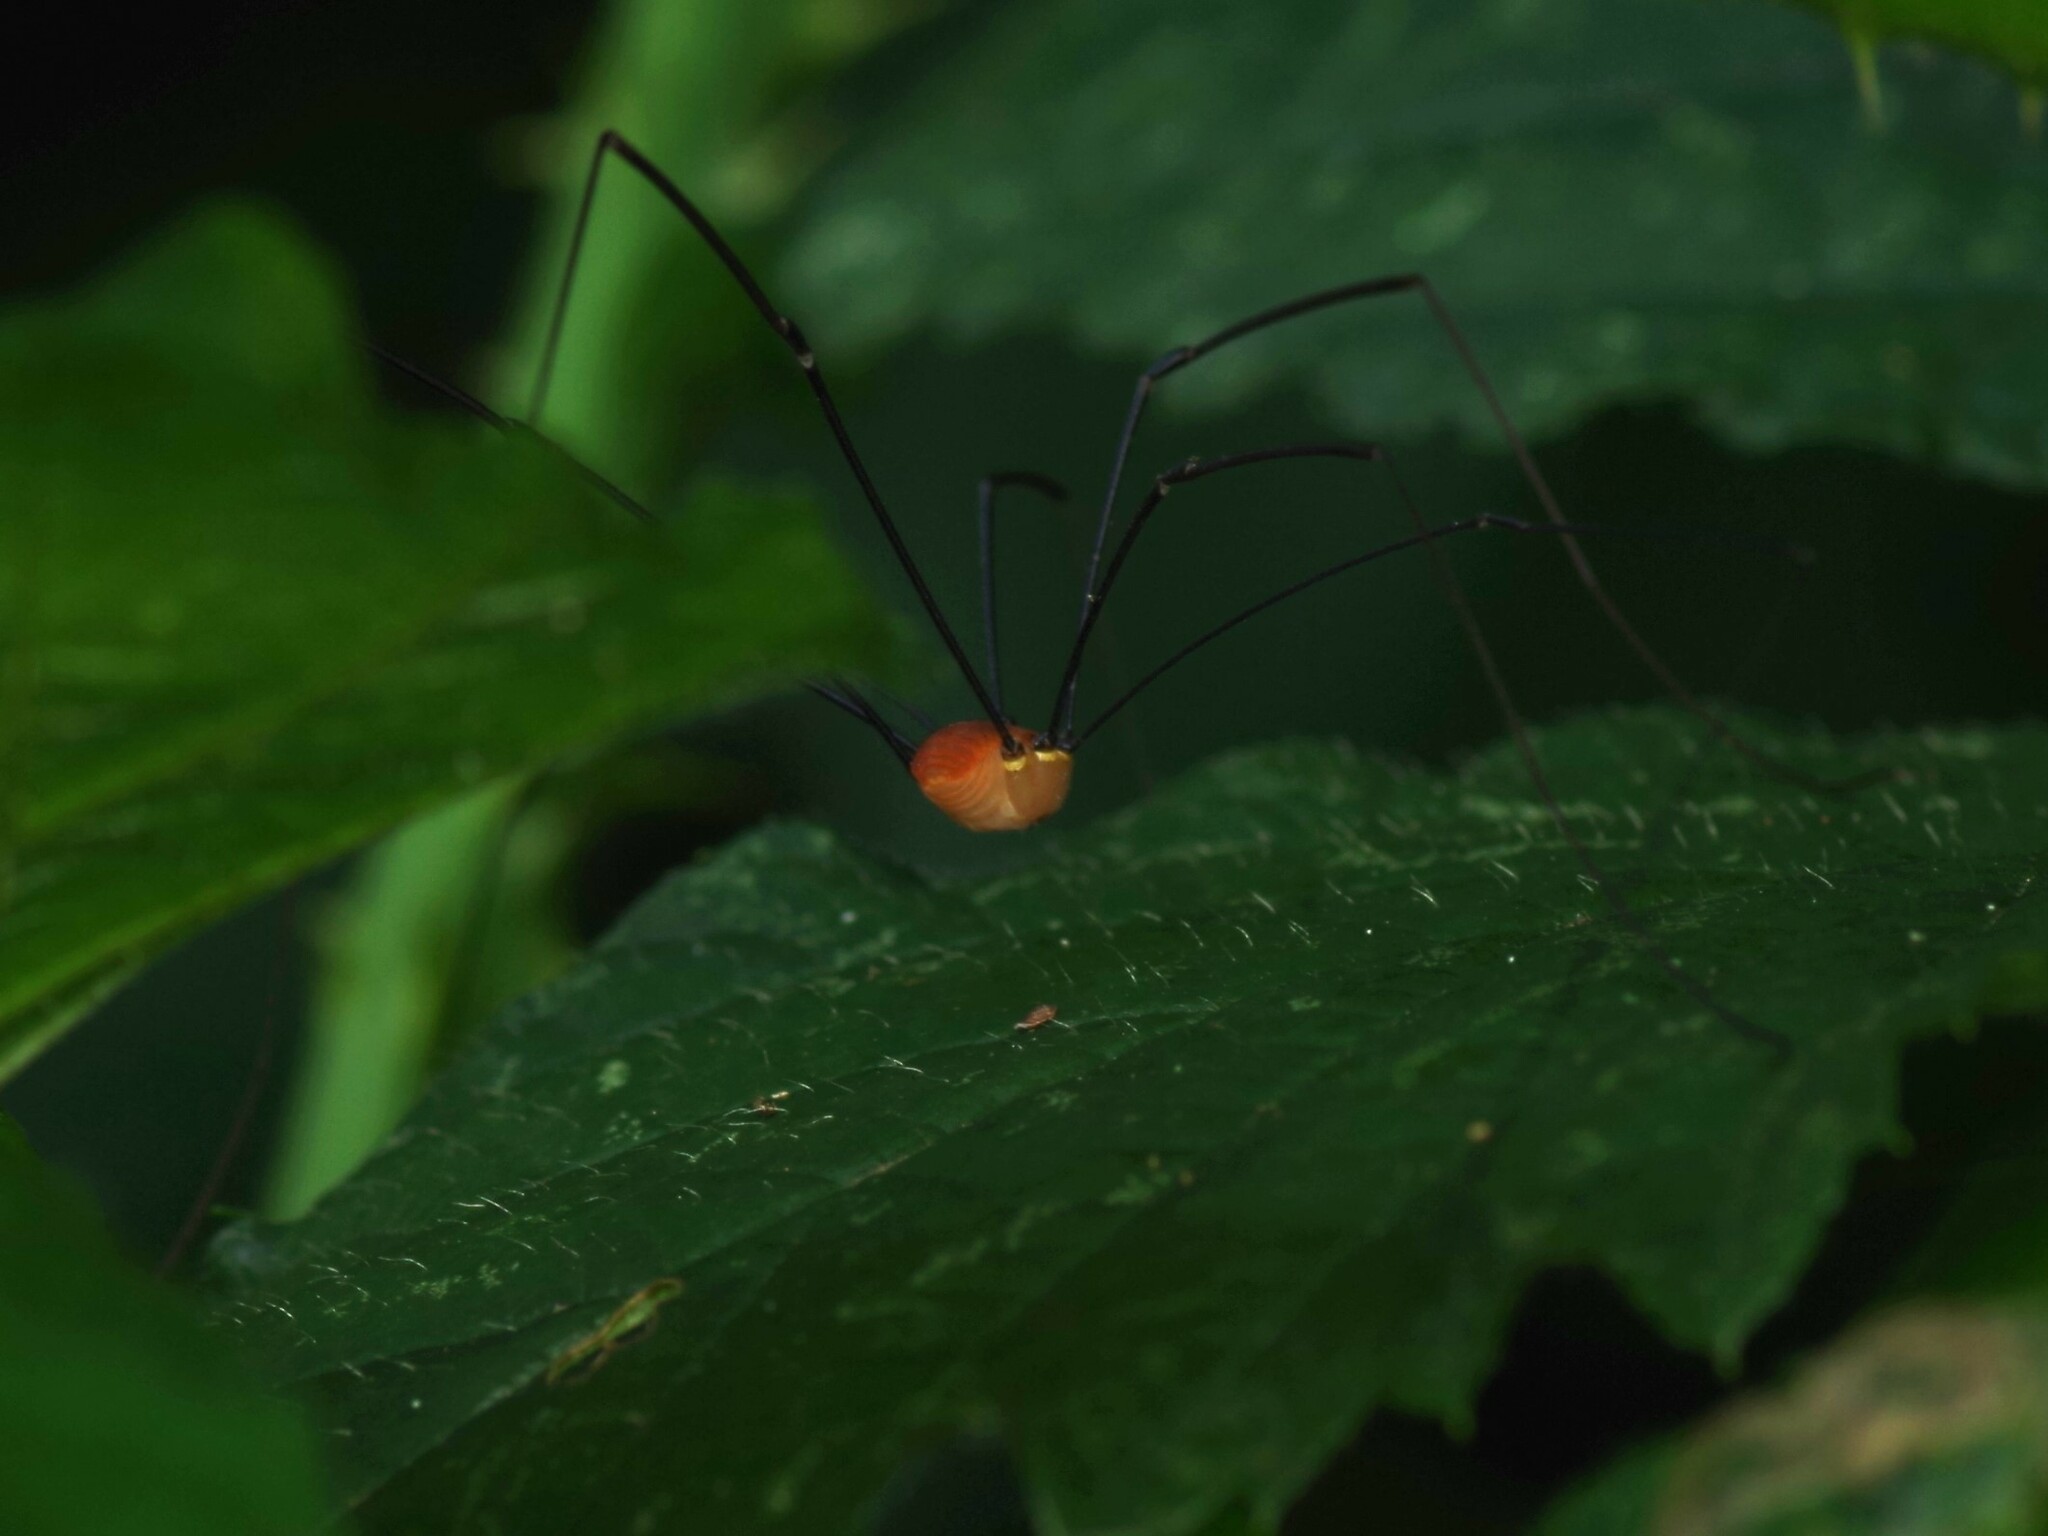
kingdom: Animalia
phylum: Arthropoda
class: Arachnida
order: Opiliones
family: Sclerosomatidae
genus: Leiobunum
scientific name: Leiobunum rotundum
